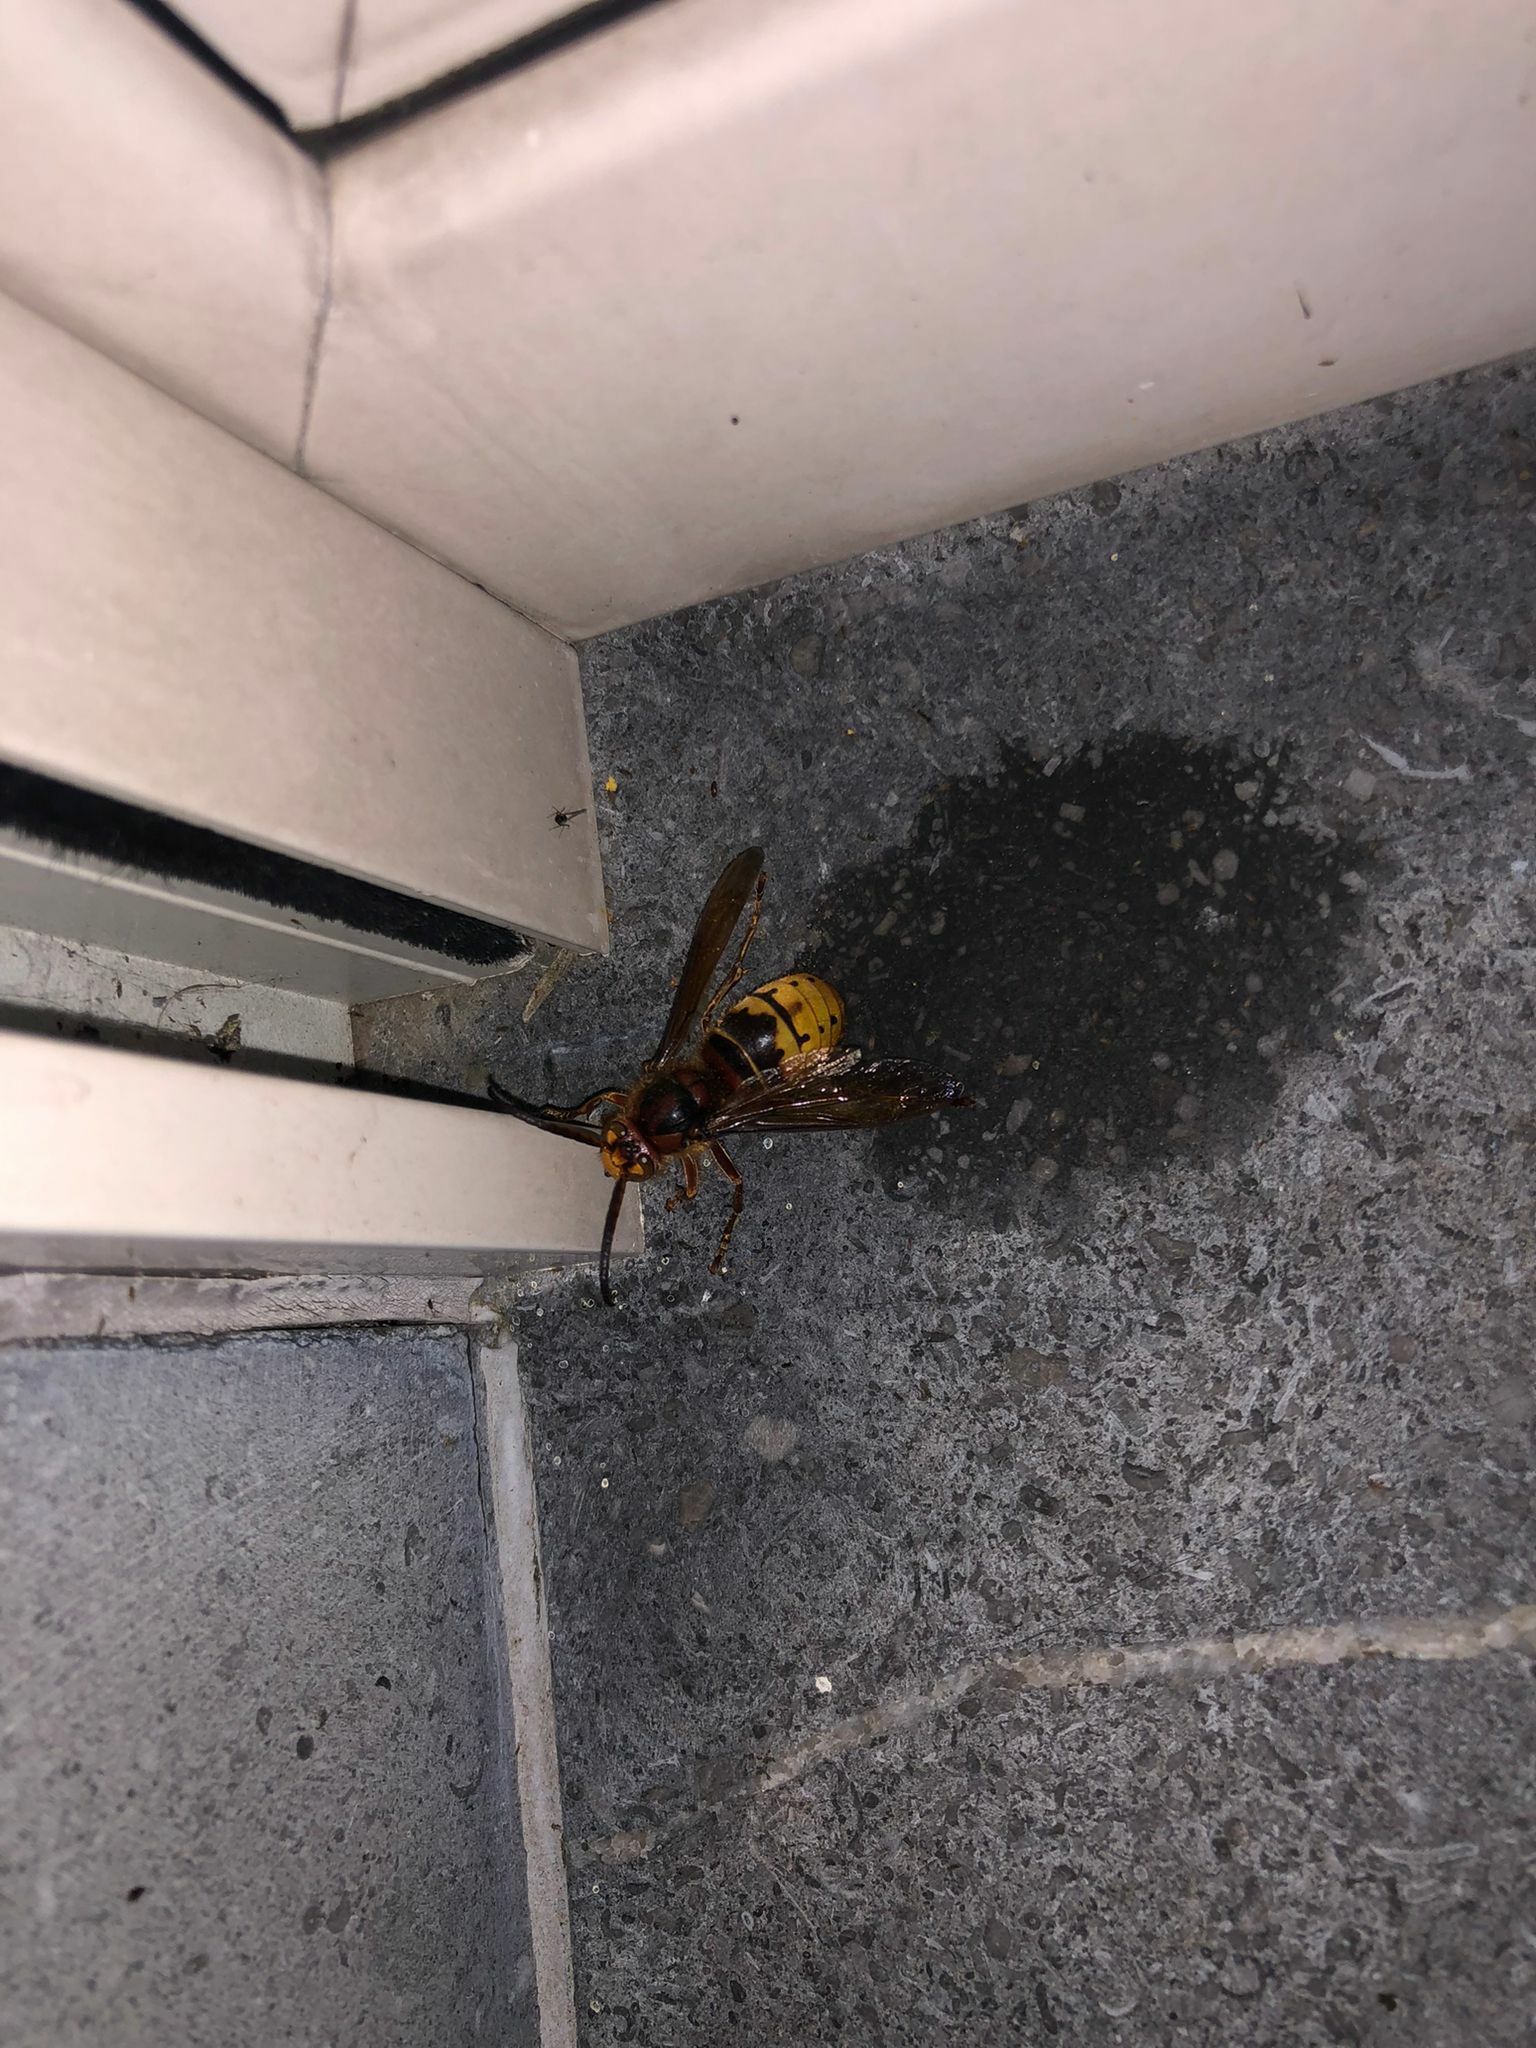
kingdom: Animalia
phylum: Arthropoda
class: Insecta
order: Hymenoptera
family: Vespidae
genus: Vespa
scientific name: Vespa crabro
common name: Hornet
